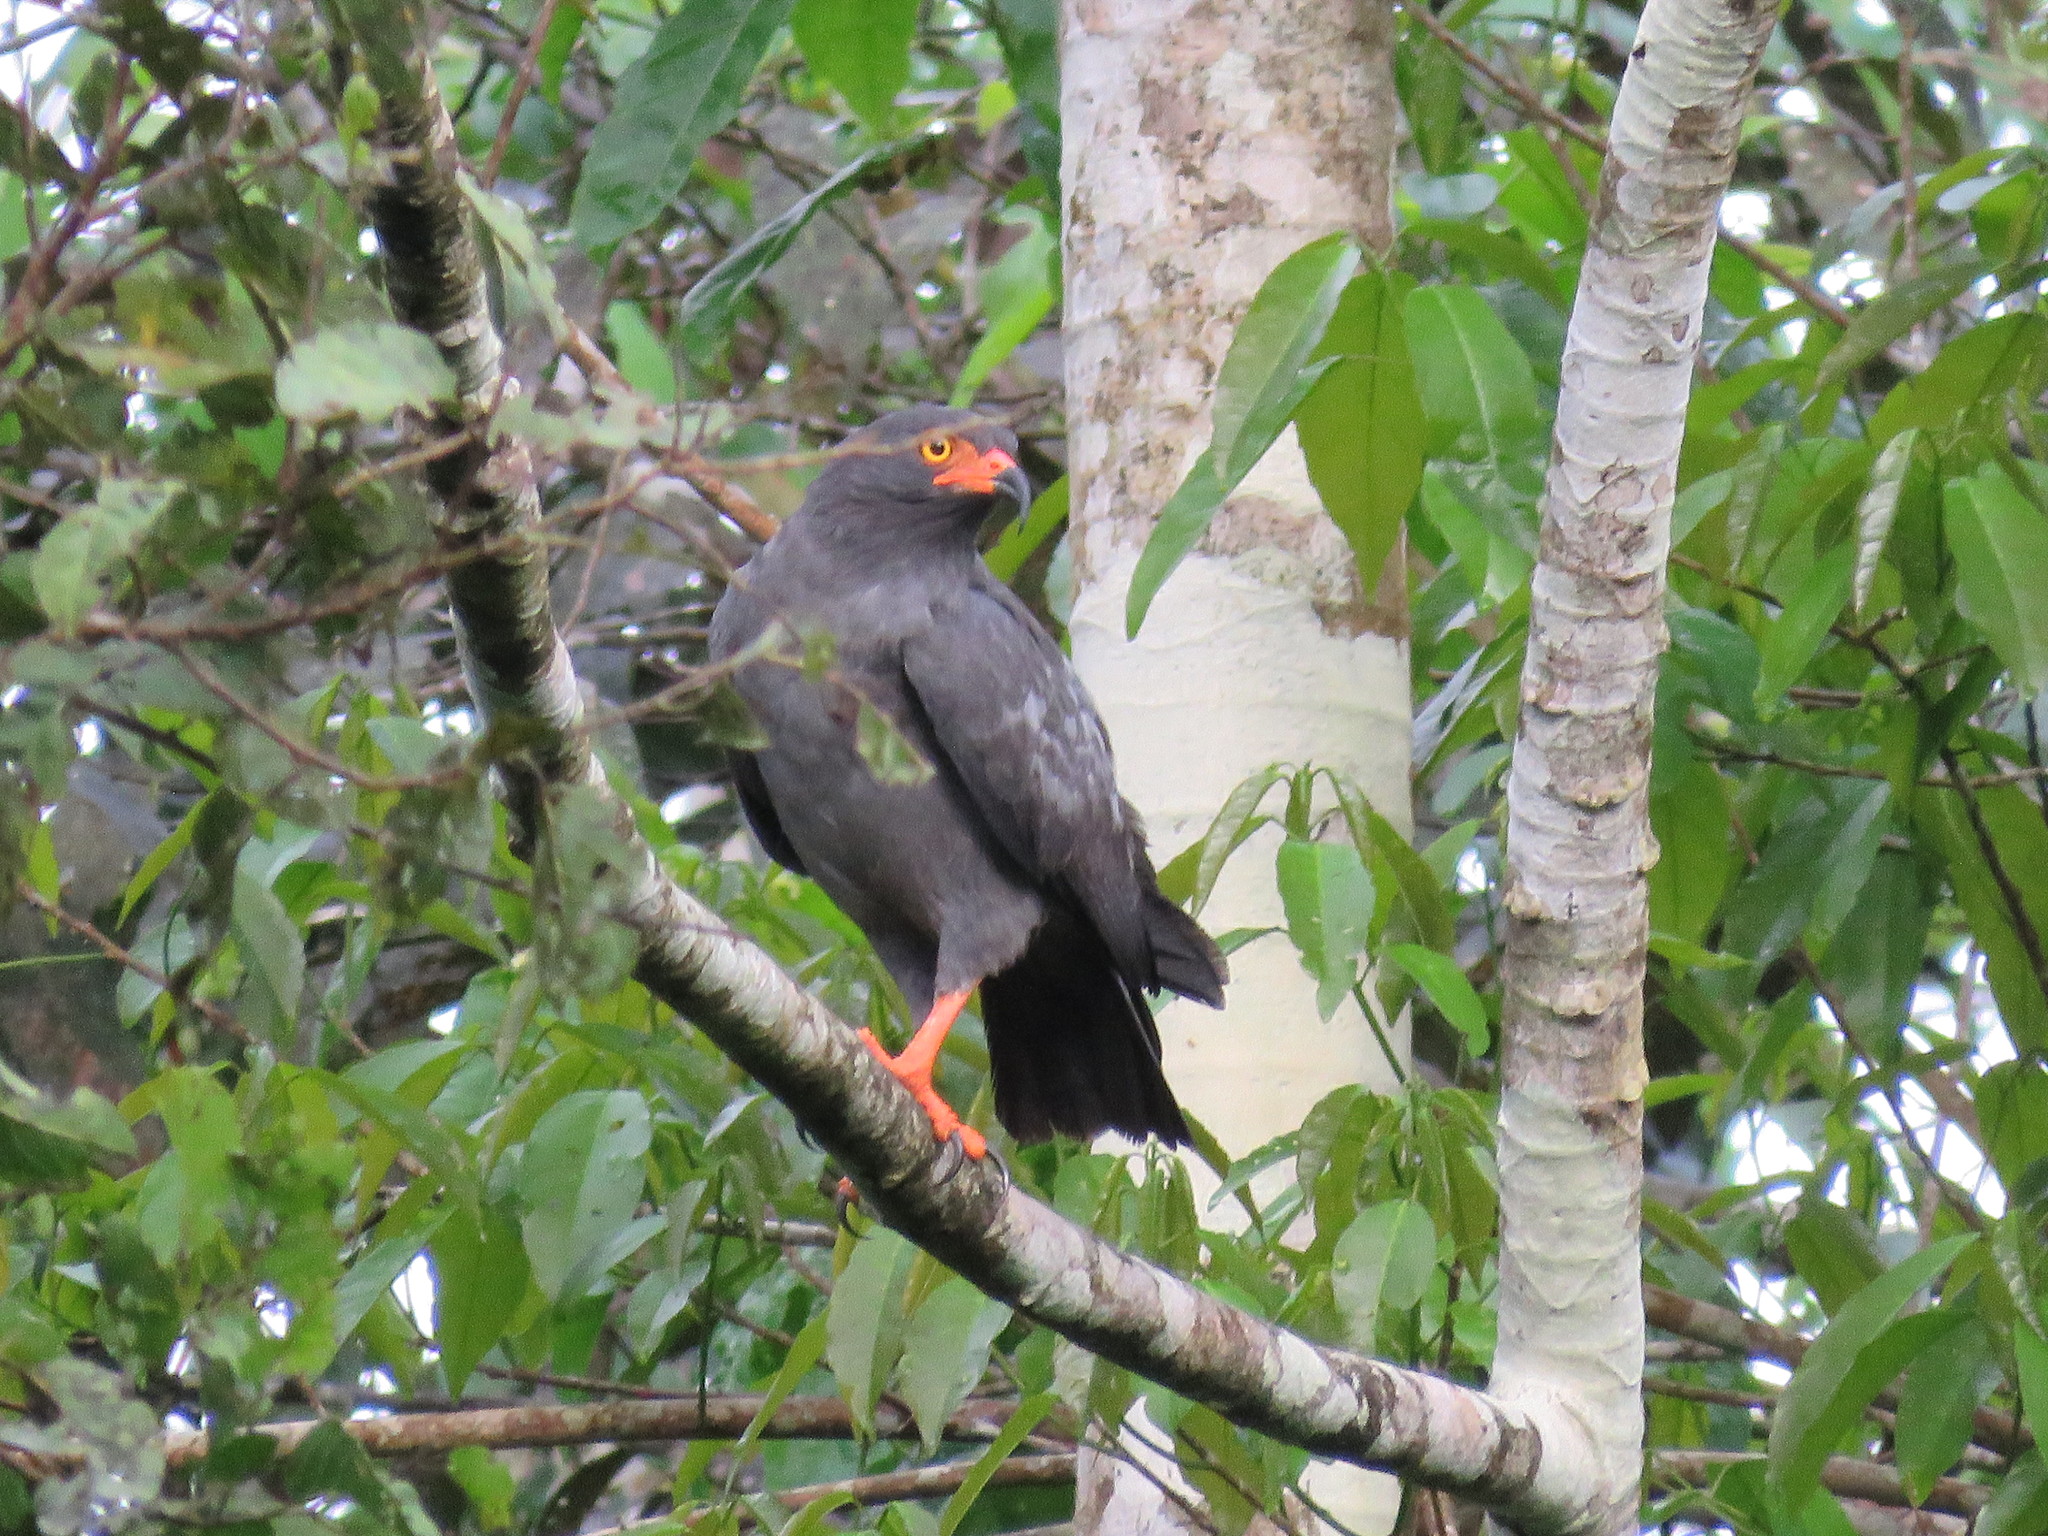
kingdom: Animalia
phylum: Chordata
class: Aves
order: Accipitriformes
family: Accipitridae
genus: Helicolestes
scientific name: Helicolestes hamatus
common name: Slender-billed kite
